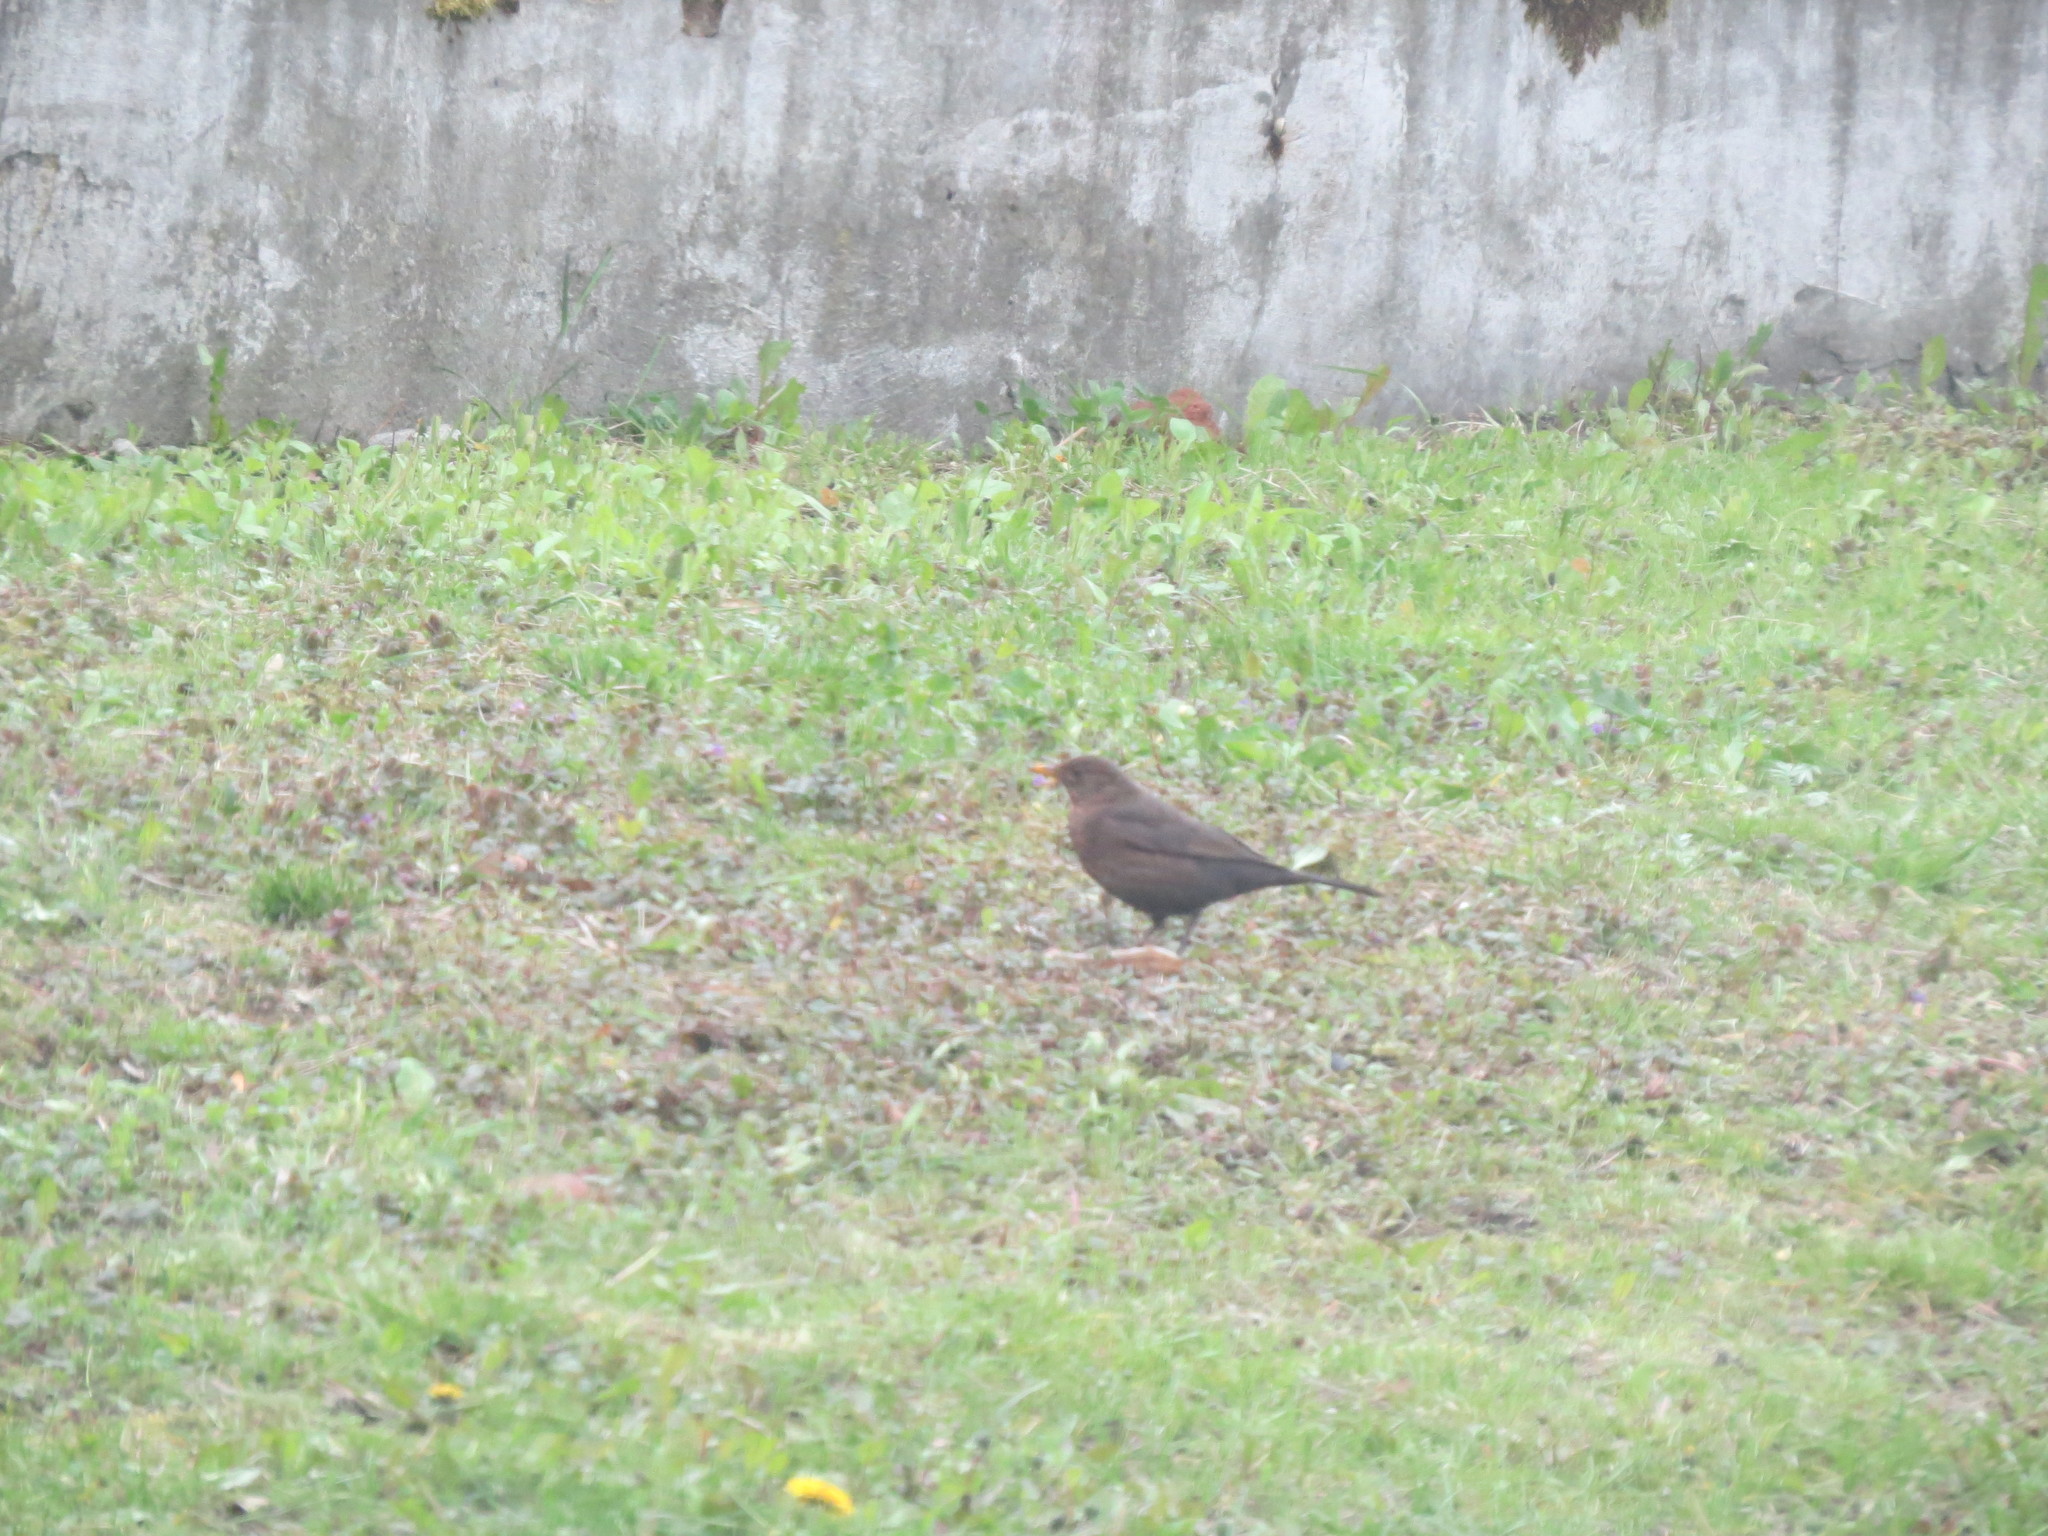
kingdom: Animalia
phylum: Chordata
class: Aves
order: Passeriformes
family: Turdidae
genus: Turdus
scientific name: Turdus merula
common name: Common blackbird
